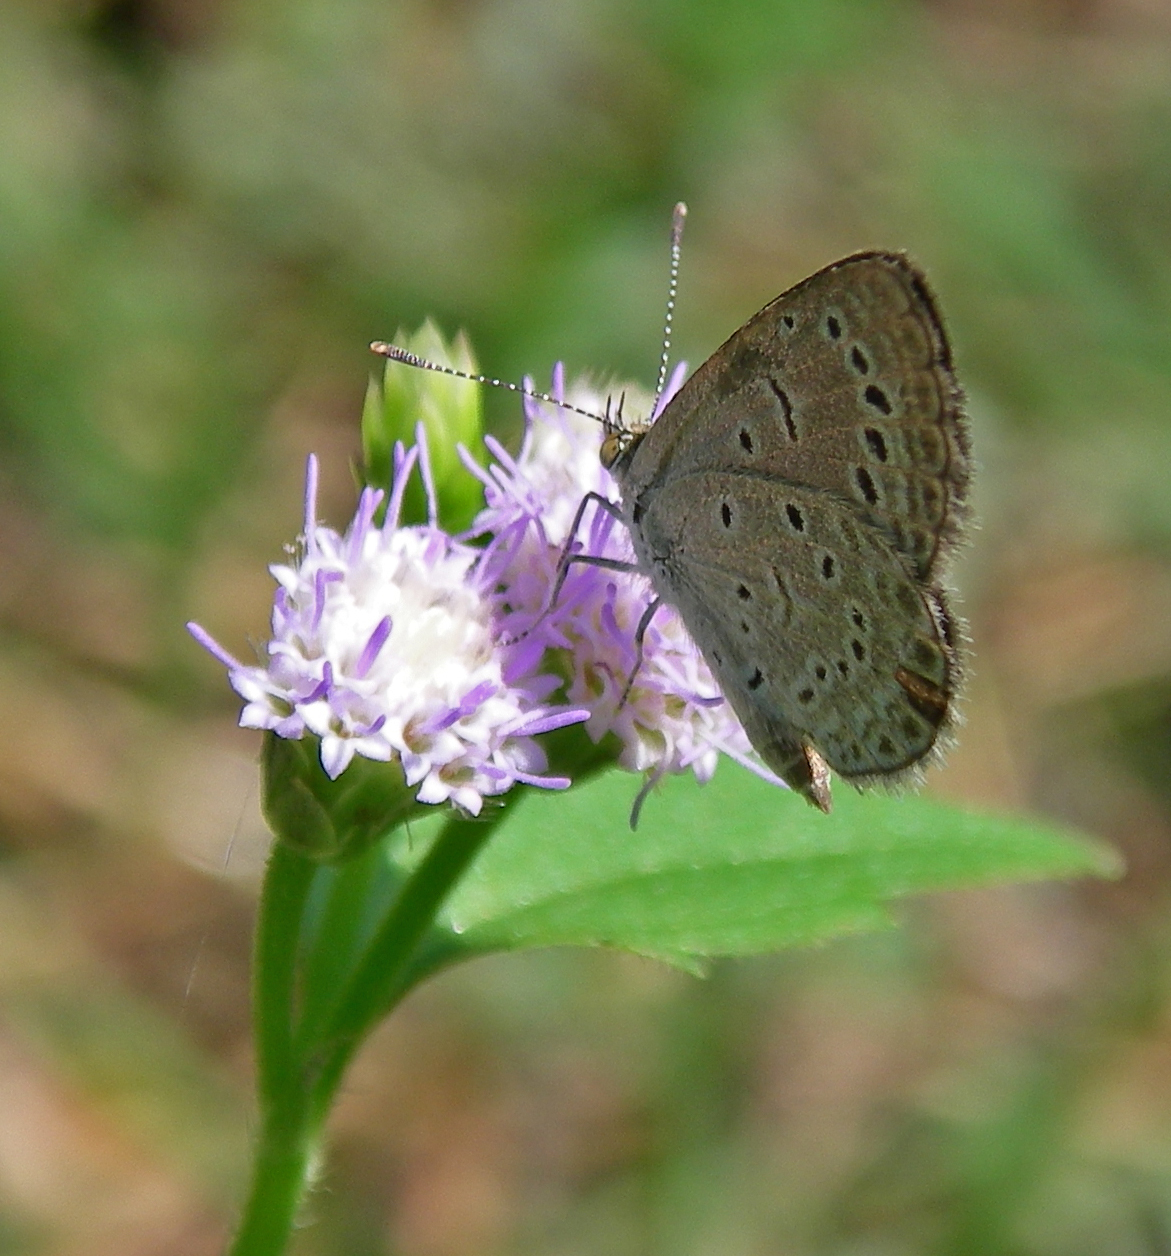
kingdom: Animalia
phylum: Arthropoda
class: Insecta
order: Lepidoptera
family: Lycaenidae
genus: Zizeeria
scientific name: Zizeeria karsandra
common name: Dark grass blue
